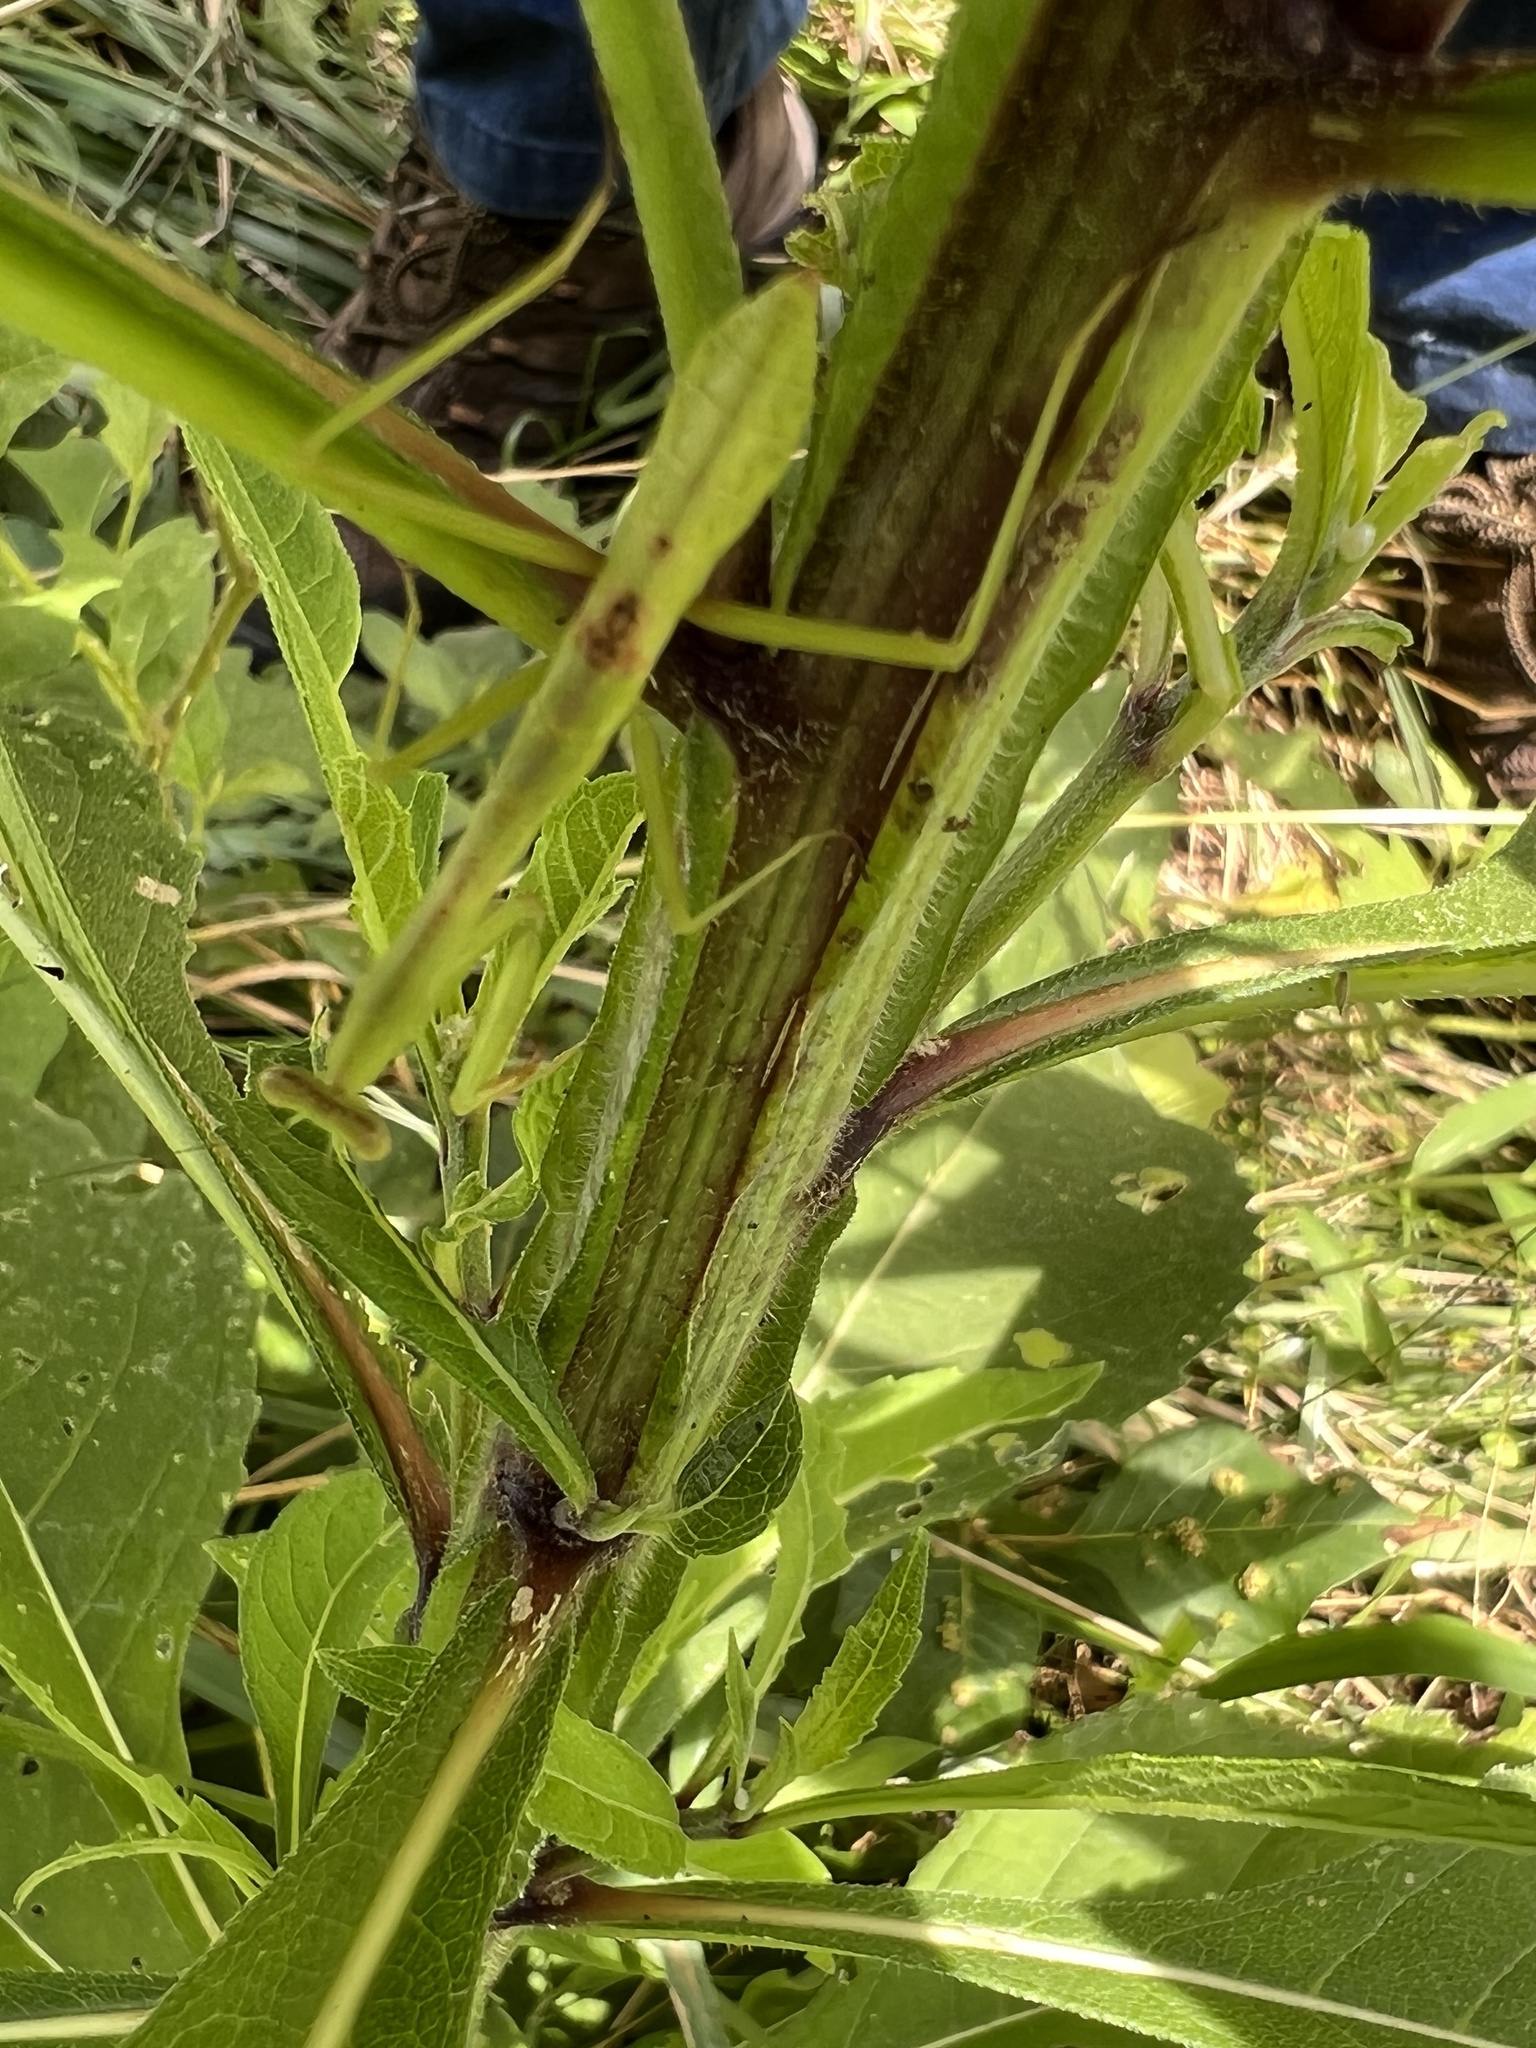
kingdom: Animalia
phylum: Arthropoda
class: Insecta
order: Mantodea
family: Mantidae
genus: Stagmomantis
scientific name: Stagmomantis carolina
